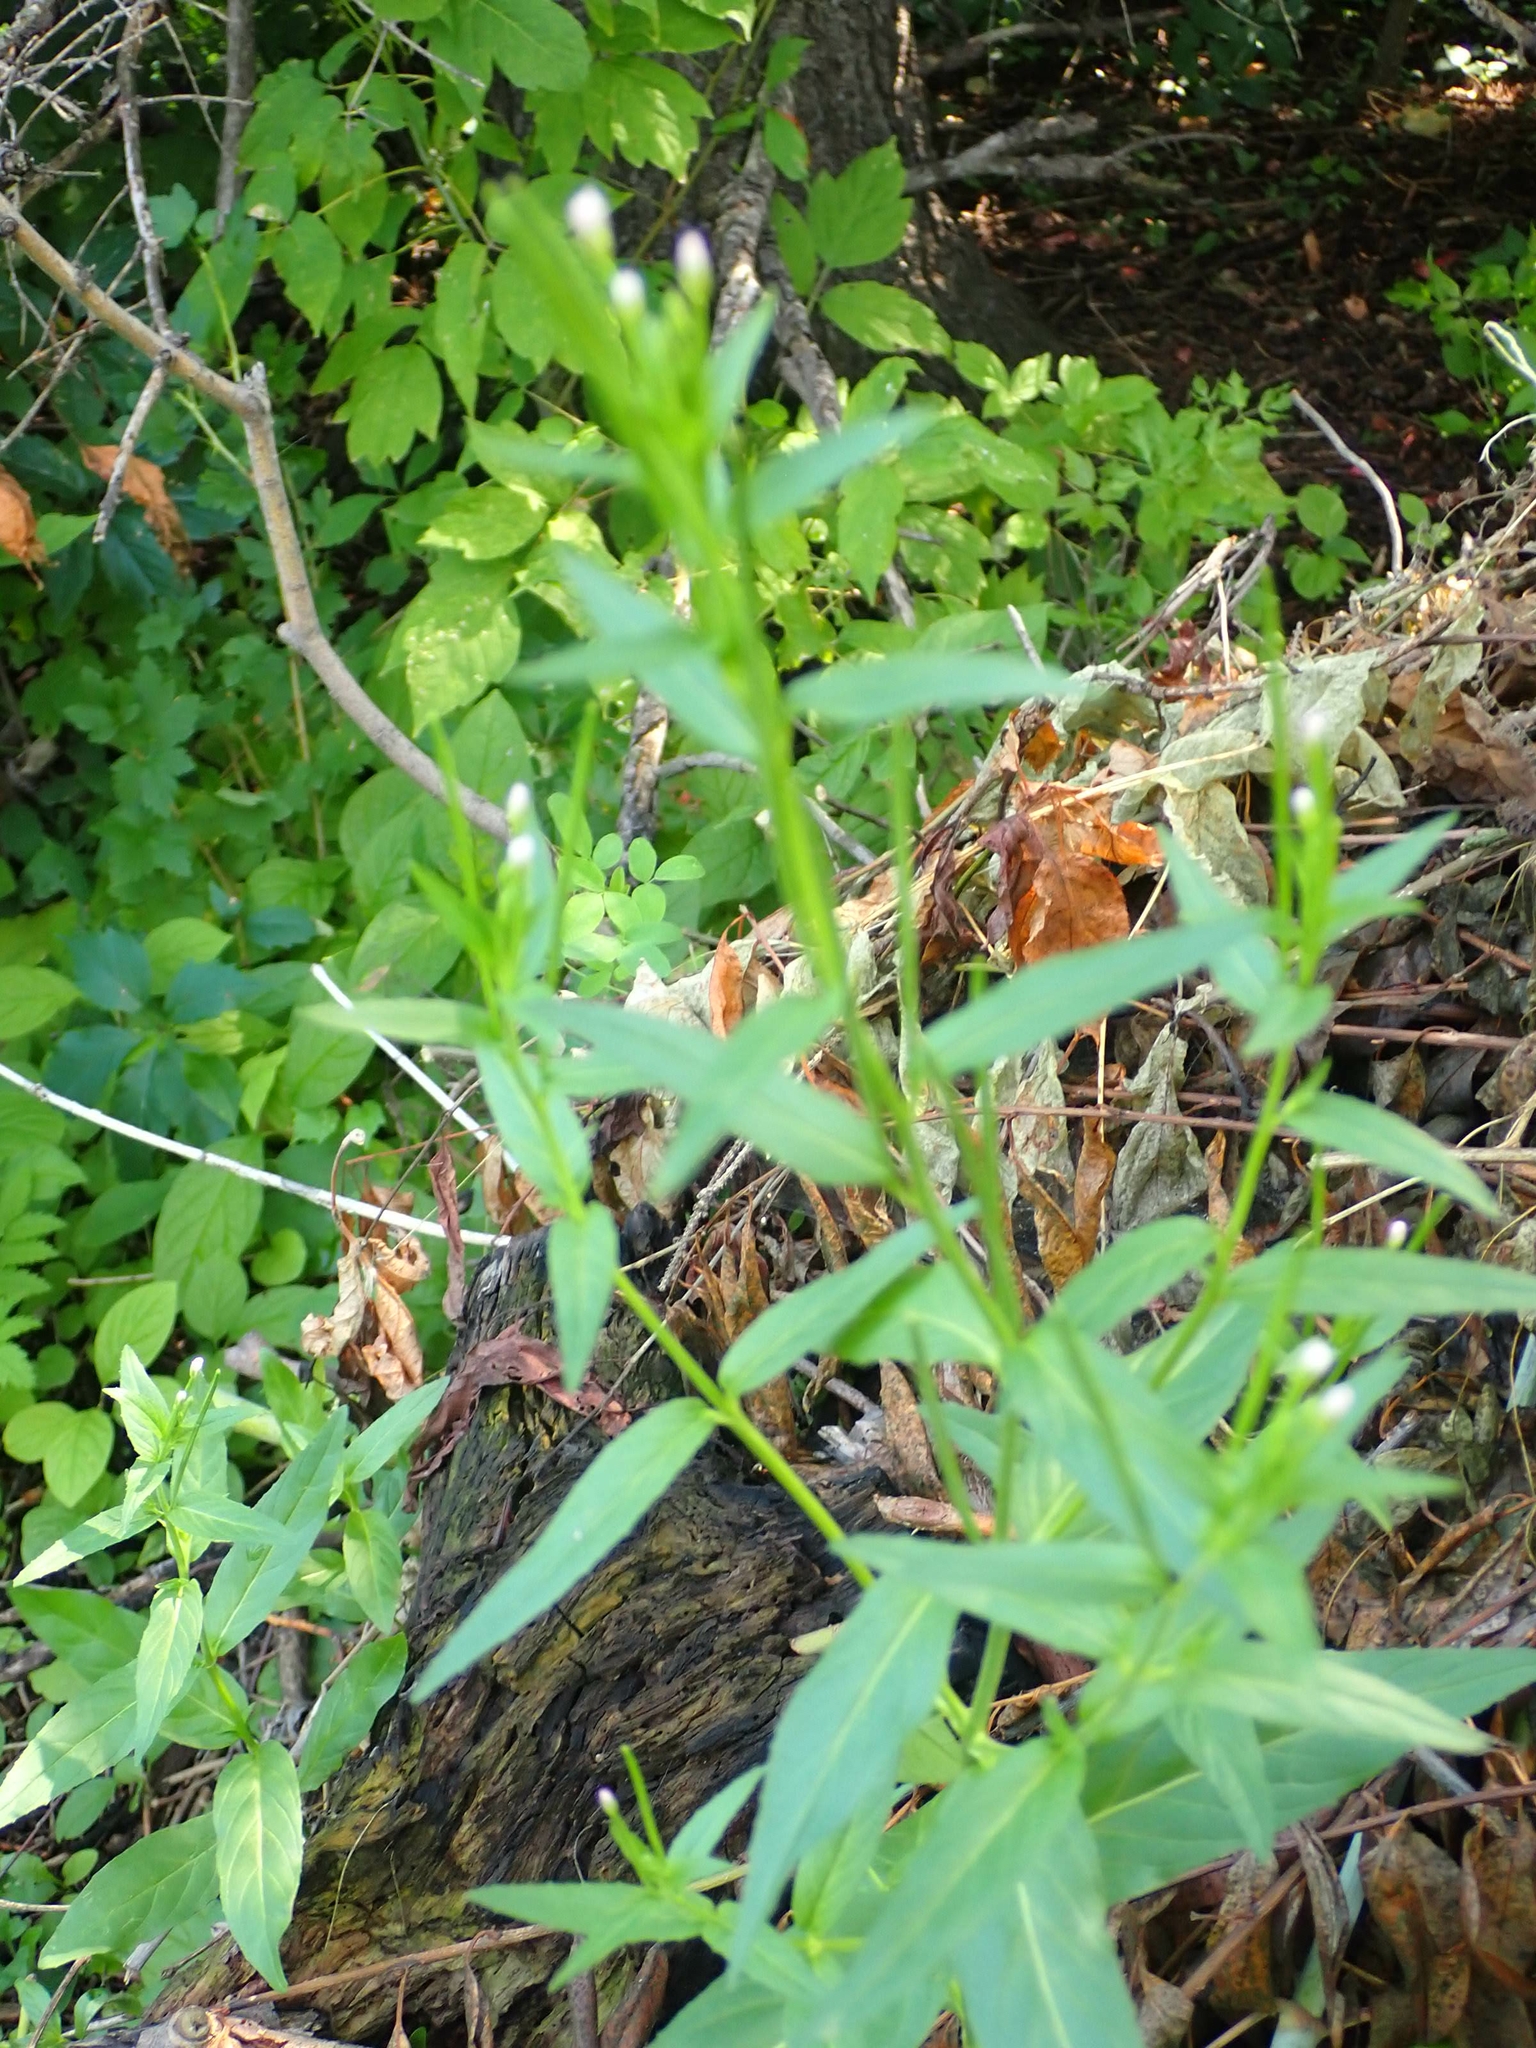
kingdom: Plantae
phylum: Tracheophyta
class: Magnoliopsida
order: Myrtales
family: Onagraceae
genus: Epilobium
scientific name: Epilobium ciliatum
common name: American willowherb
